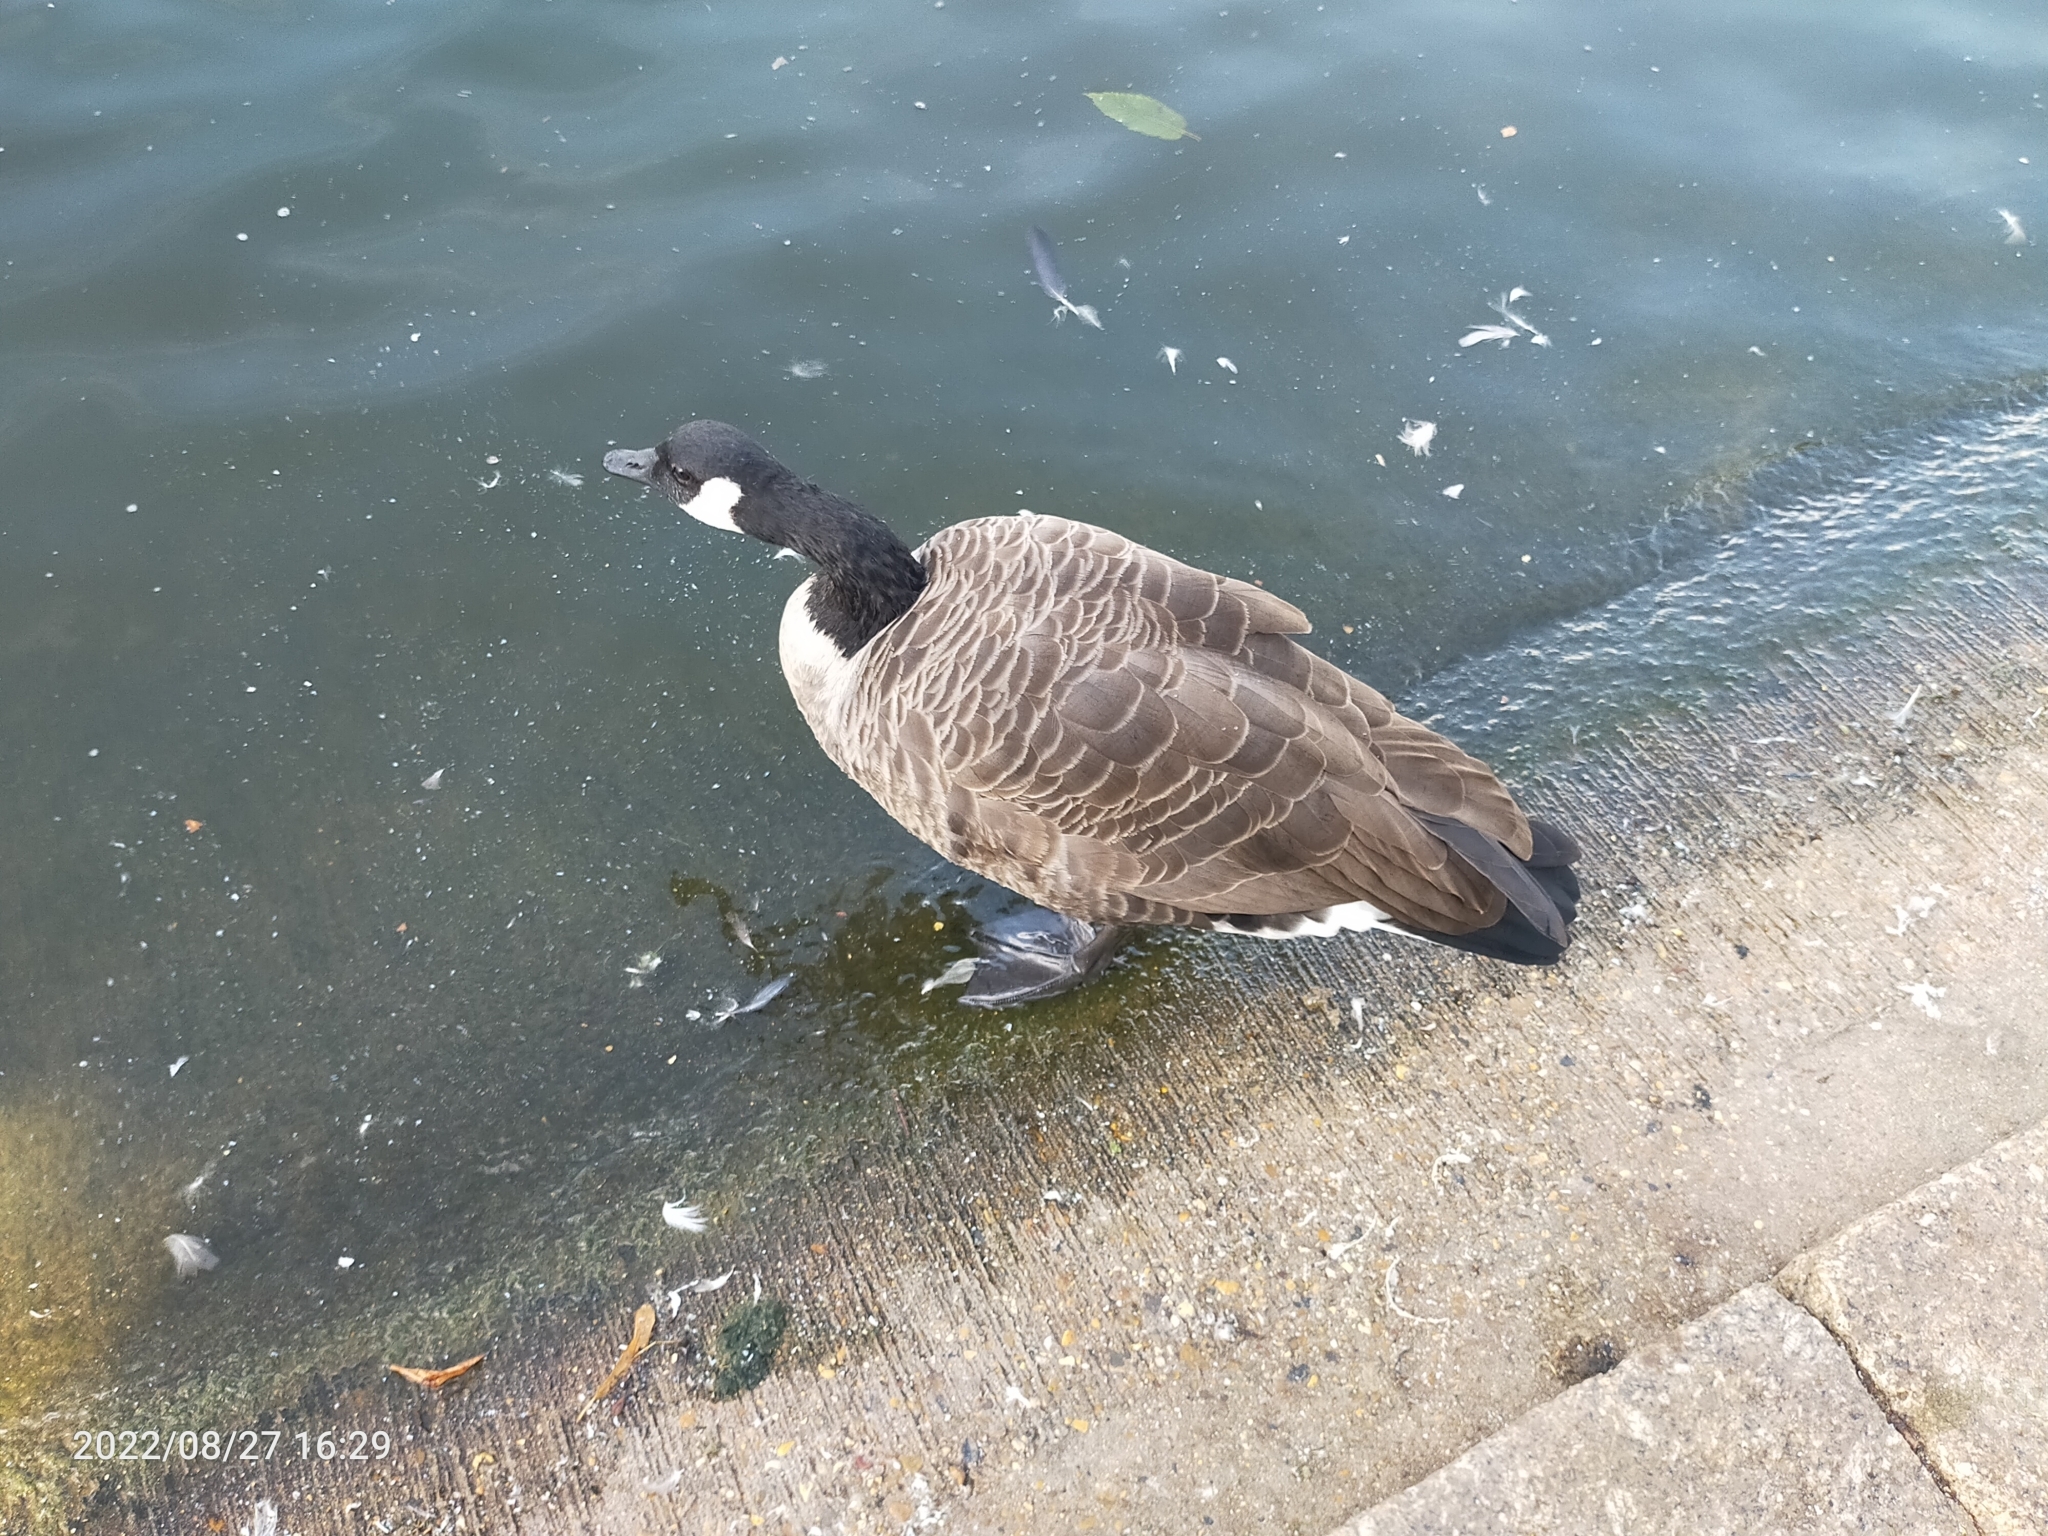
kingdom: Animalia
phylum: Chordata
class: Aves
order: Anseriformes
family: Anatidae
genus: Branta
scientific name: Branta canadensis
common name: Canada goose
